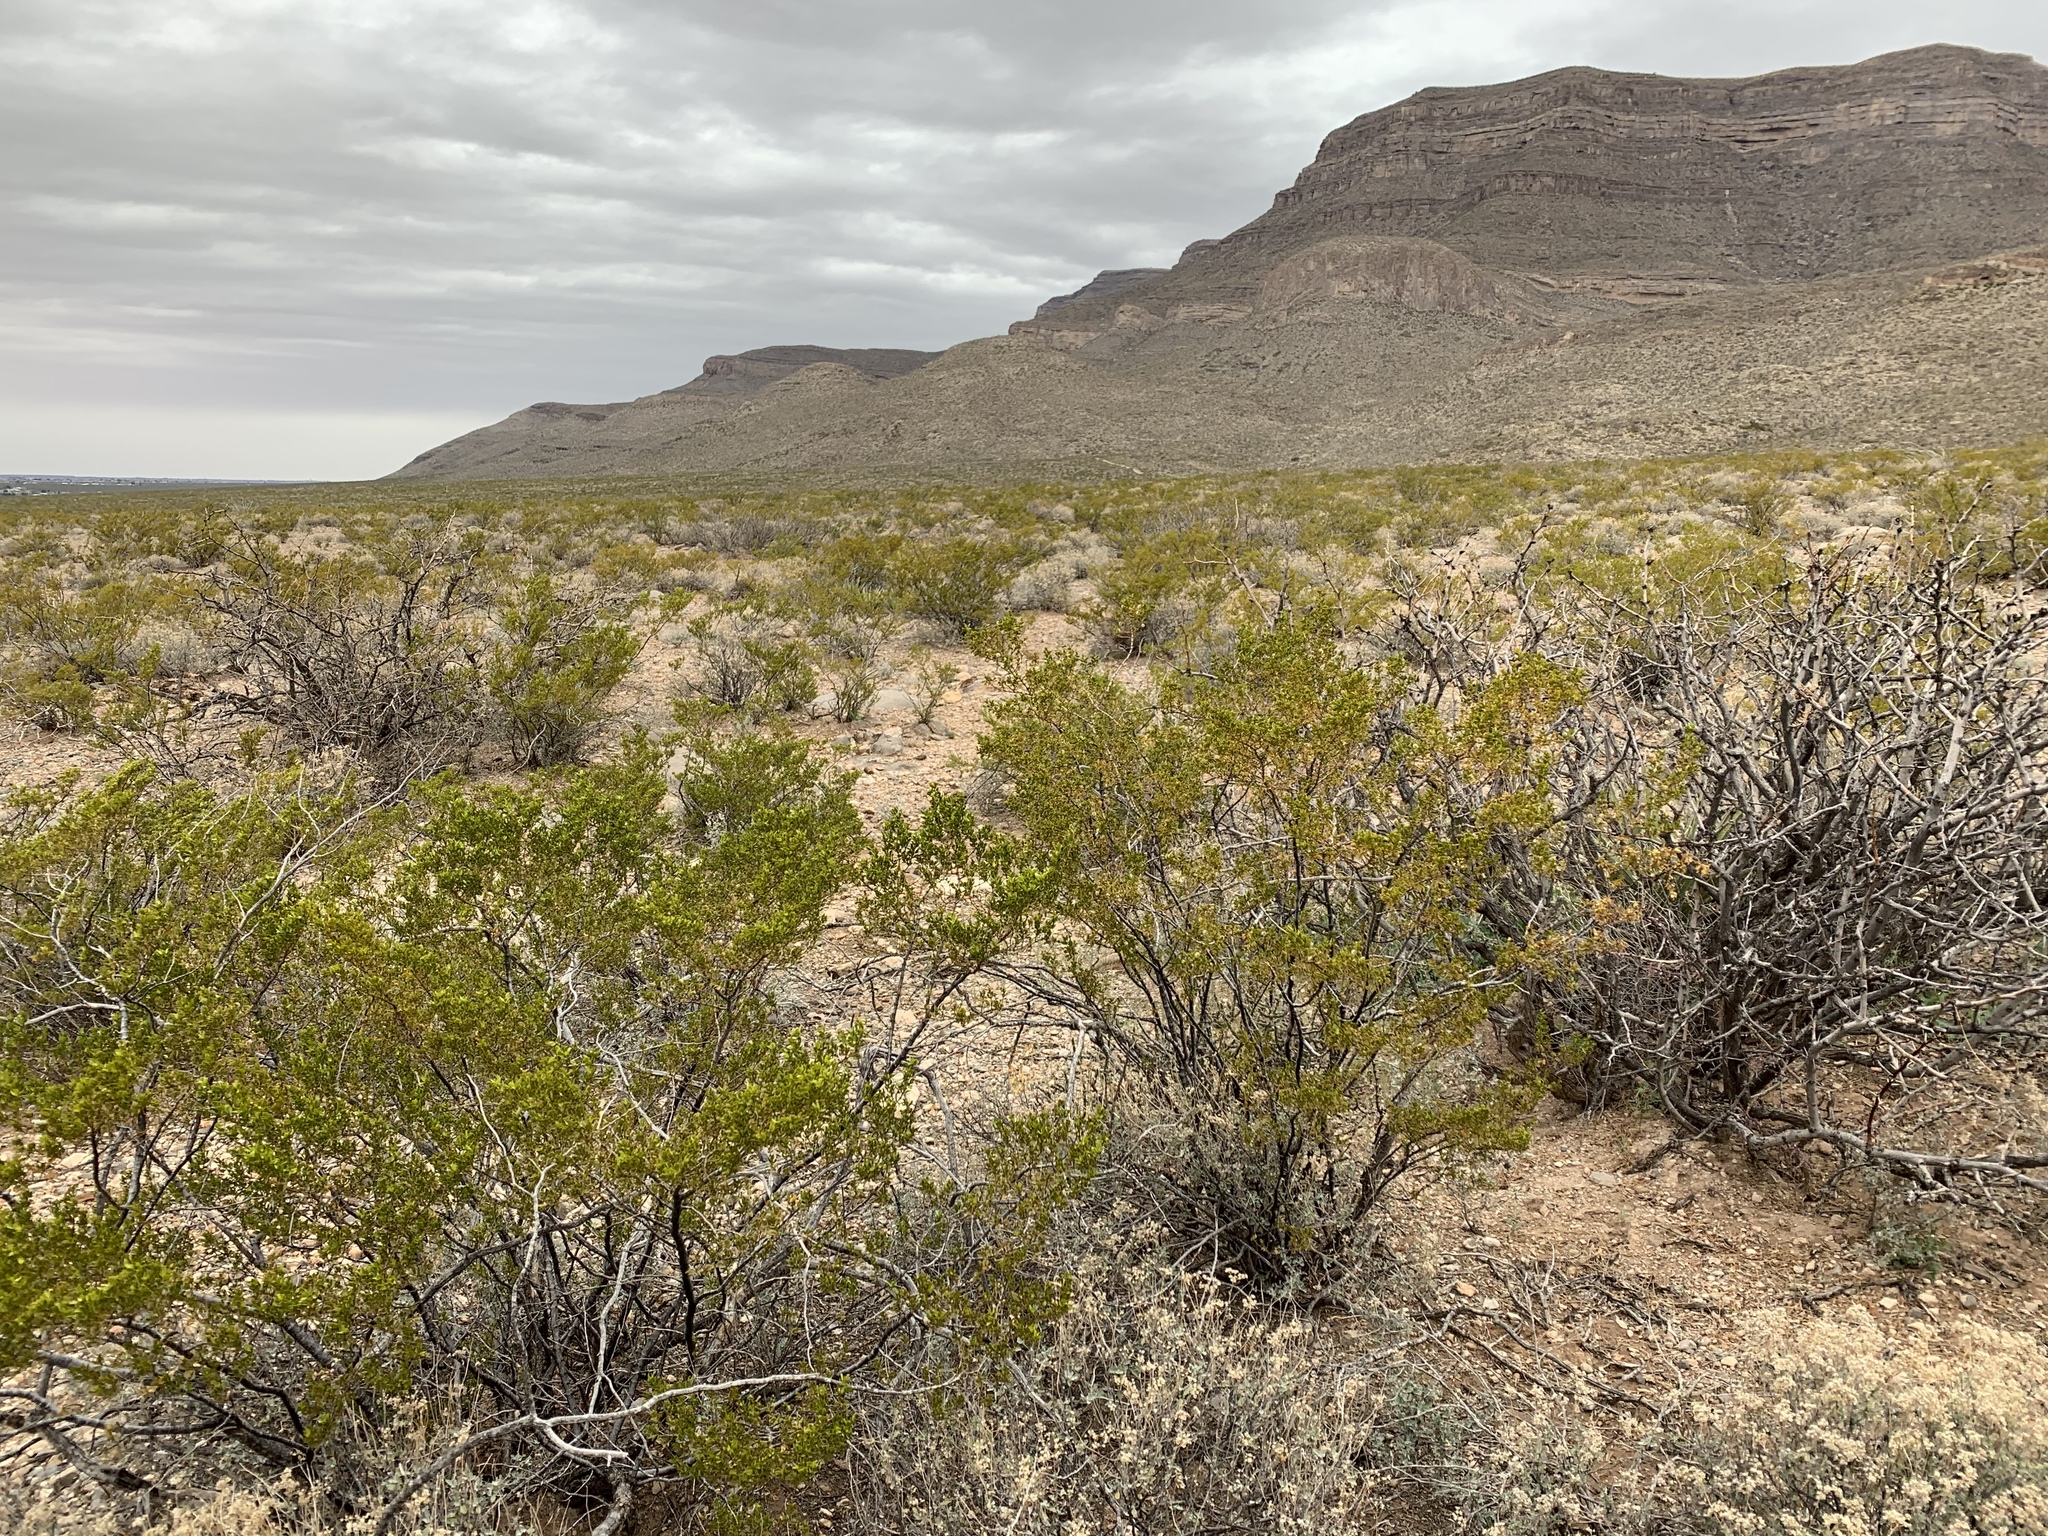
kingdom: Plantae
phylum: Tracheophyta
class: Magnoliopsida
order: Zygophyllales
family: Zygophyllaceae
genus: Larrea
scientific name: Larrea tridentata
